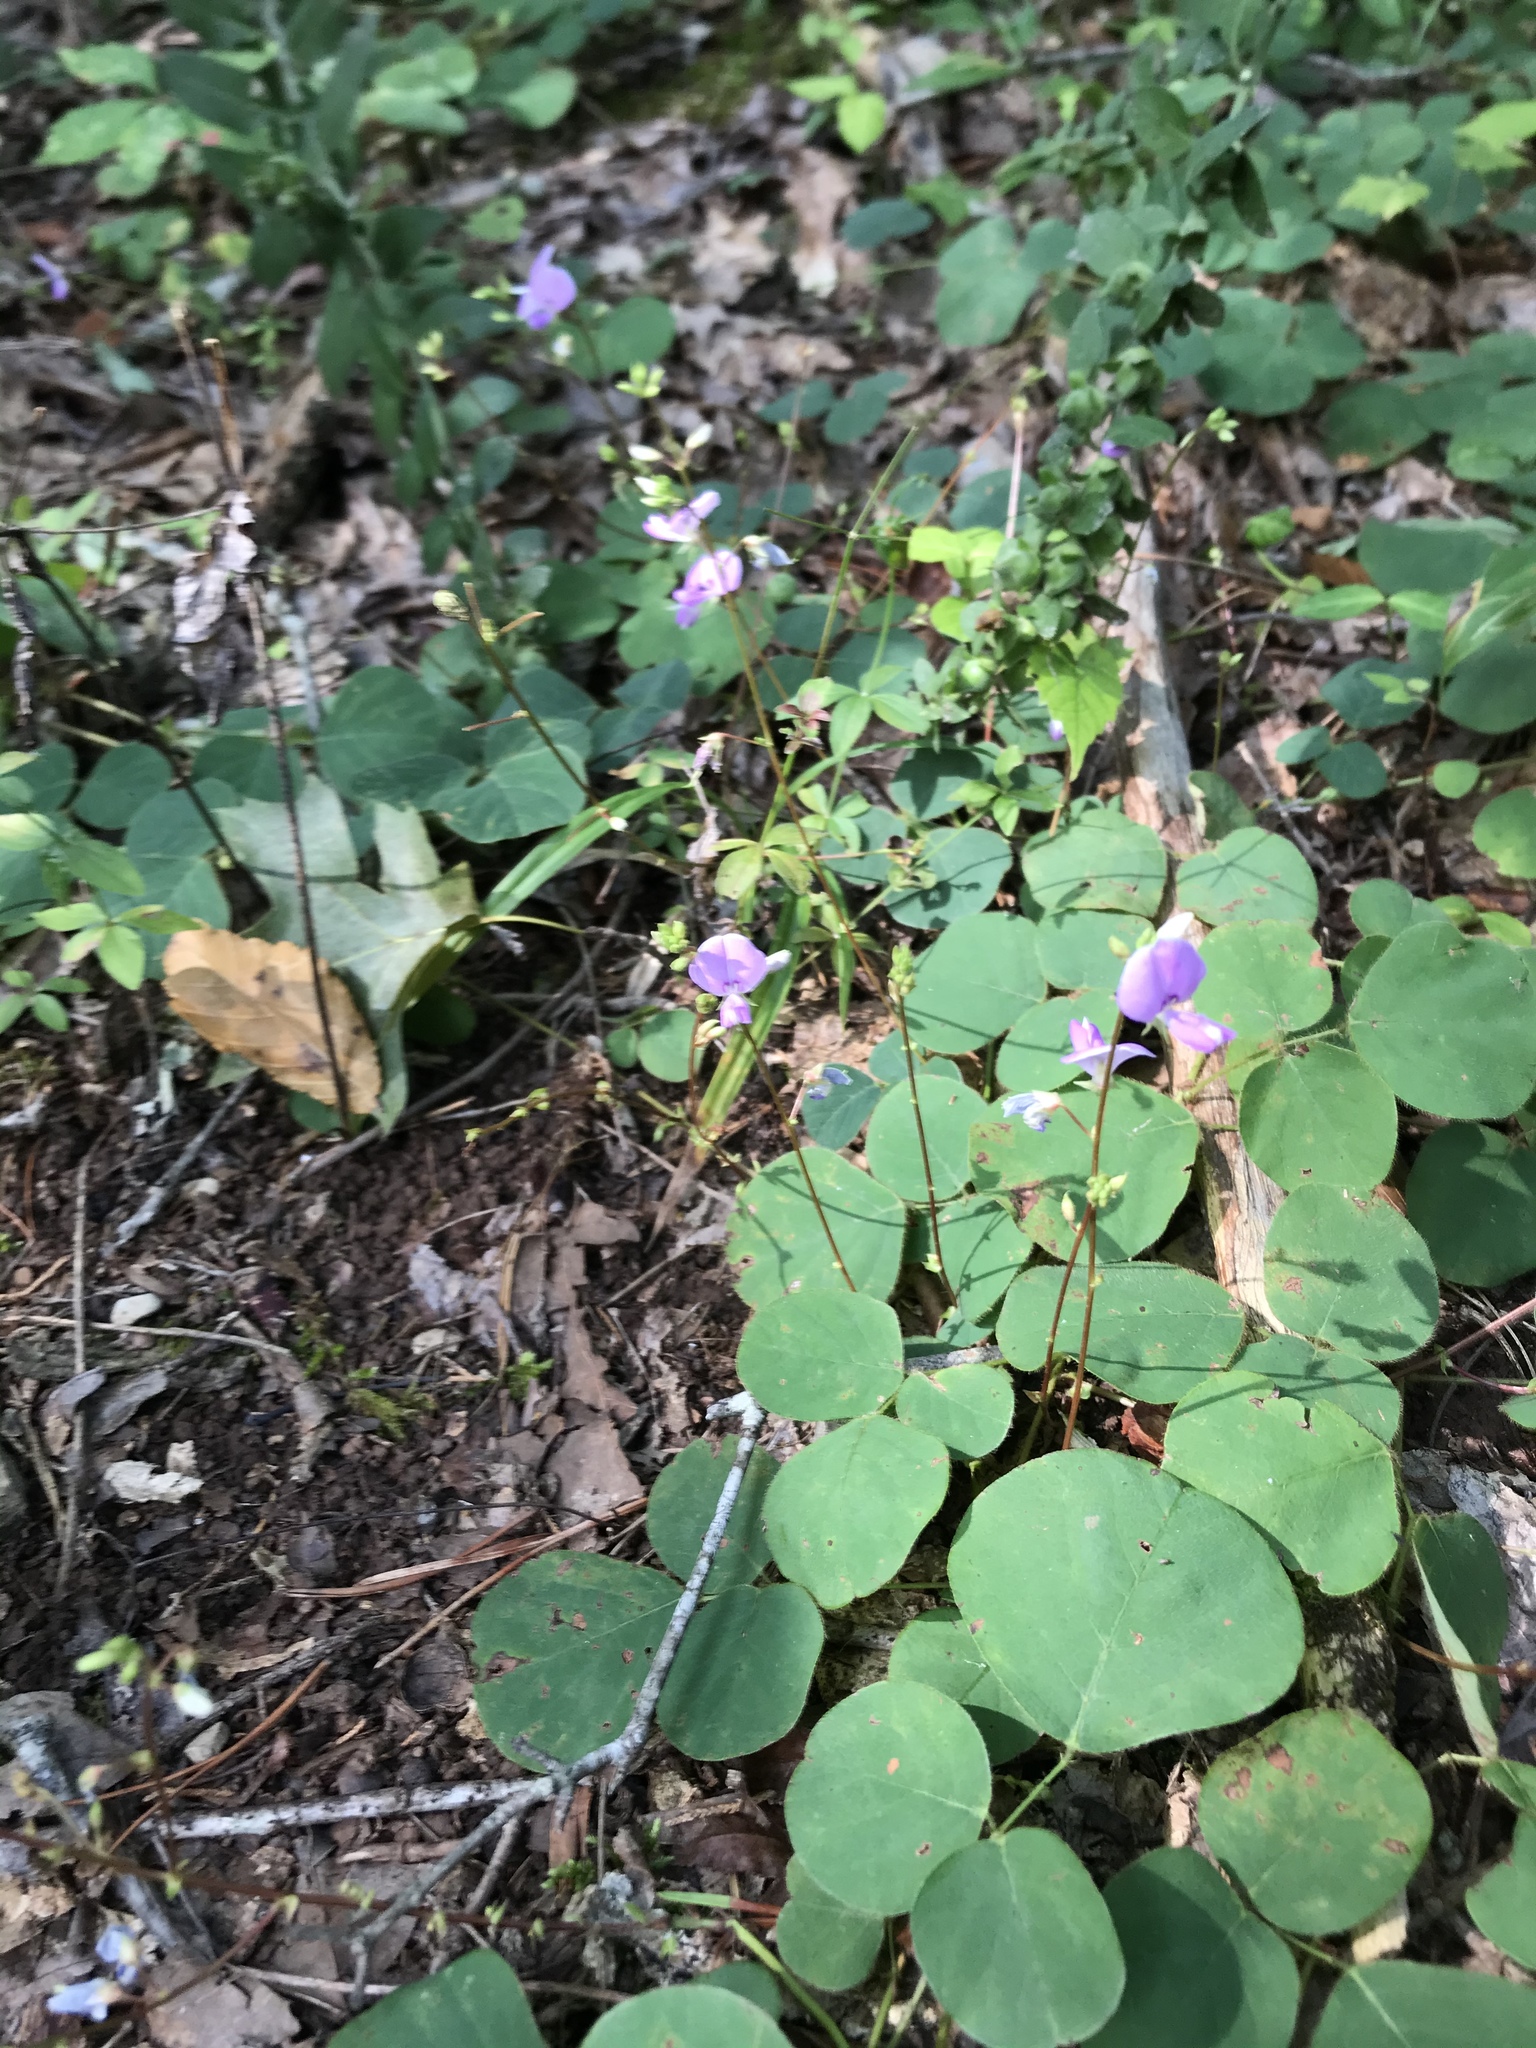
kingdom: Plantae
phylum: Tracheophyta
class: Magnoliopsida
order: Fabales
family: Fabaceae
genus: Desmodium
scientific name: Desmodium rotundifolium
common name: Dollarleaf
